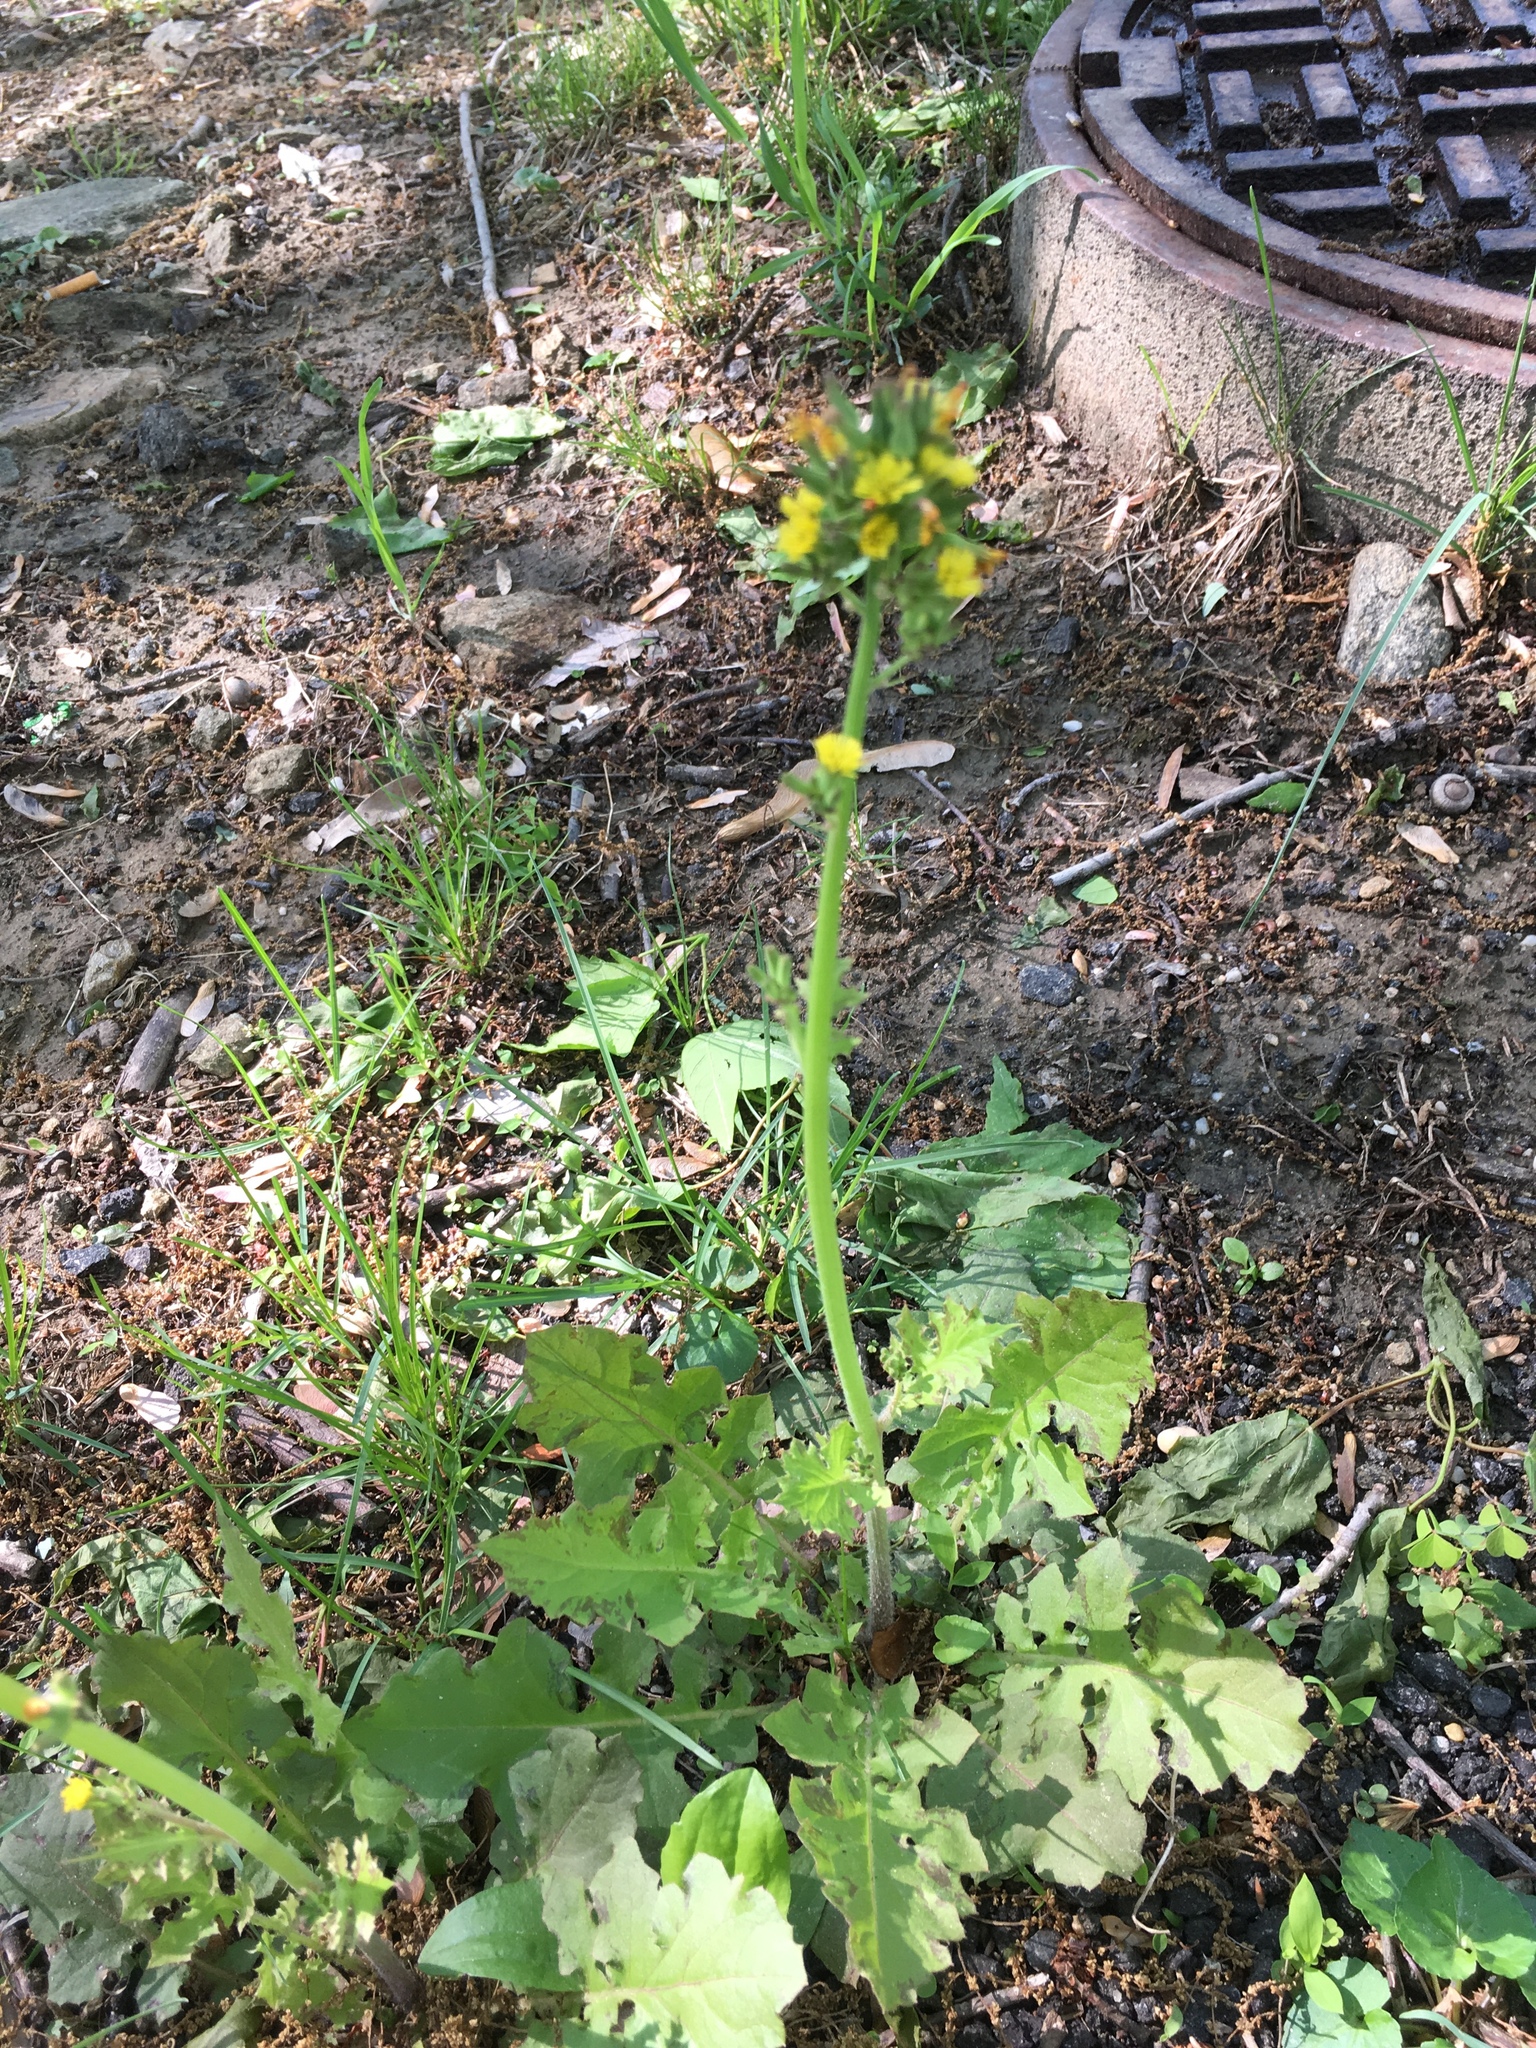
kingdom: Plantae
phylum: Tracheophyta
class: Magnoliopsida
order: Asterales
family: Asteraceae
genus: Youngia
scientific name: Youngia japonica
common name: Oriental false hawksbeard
